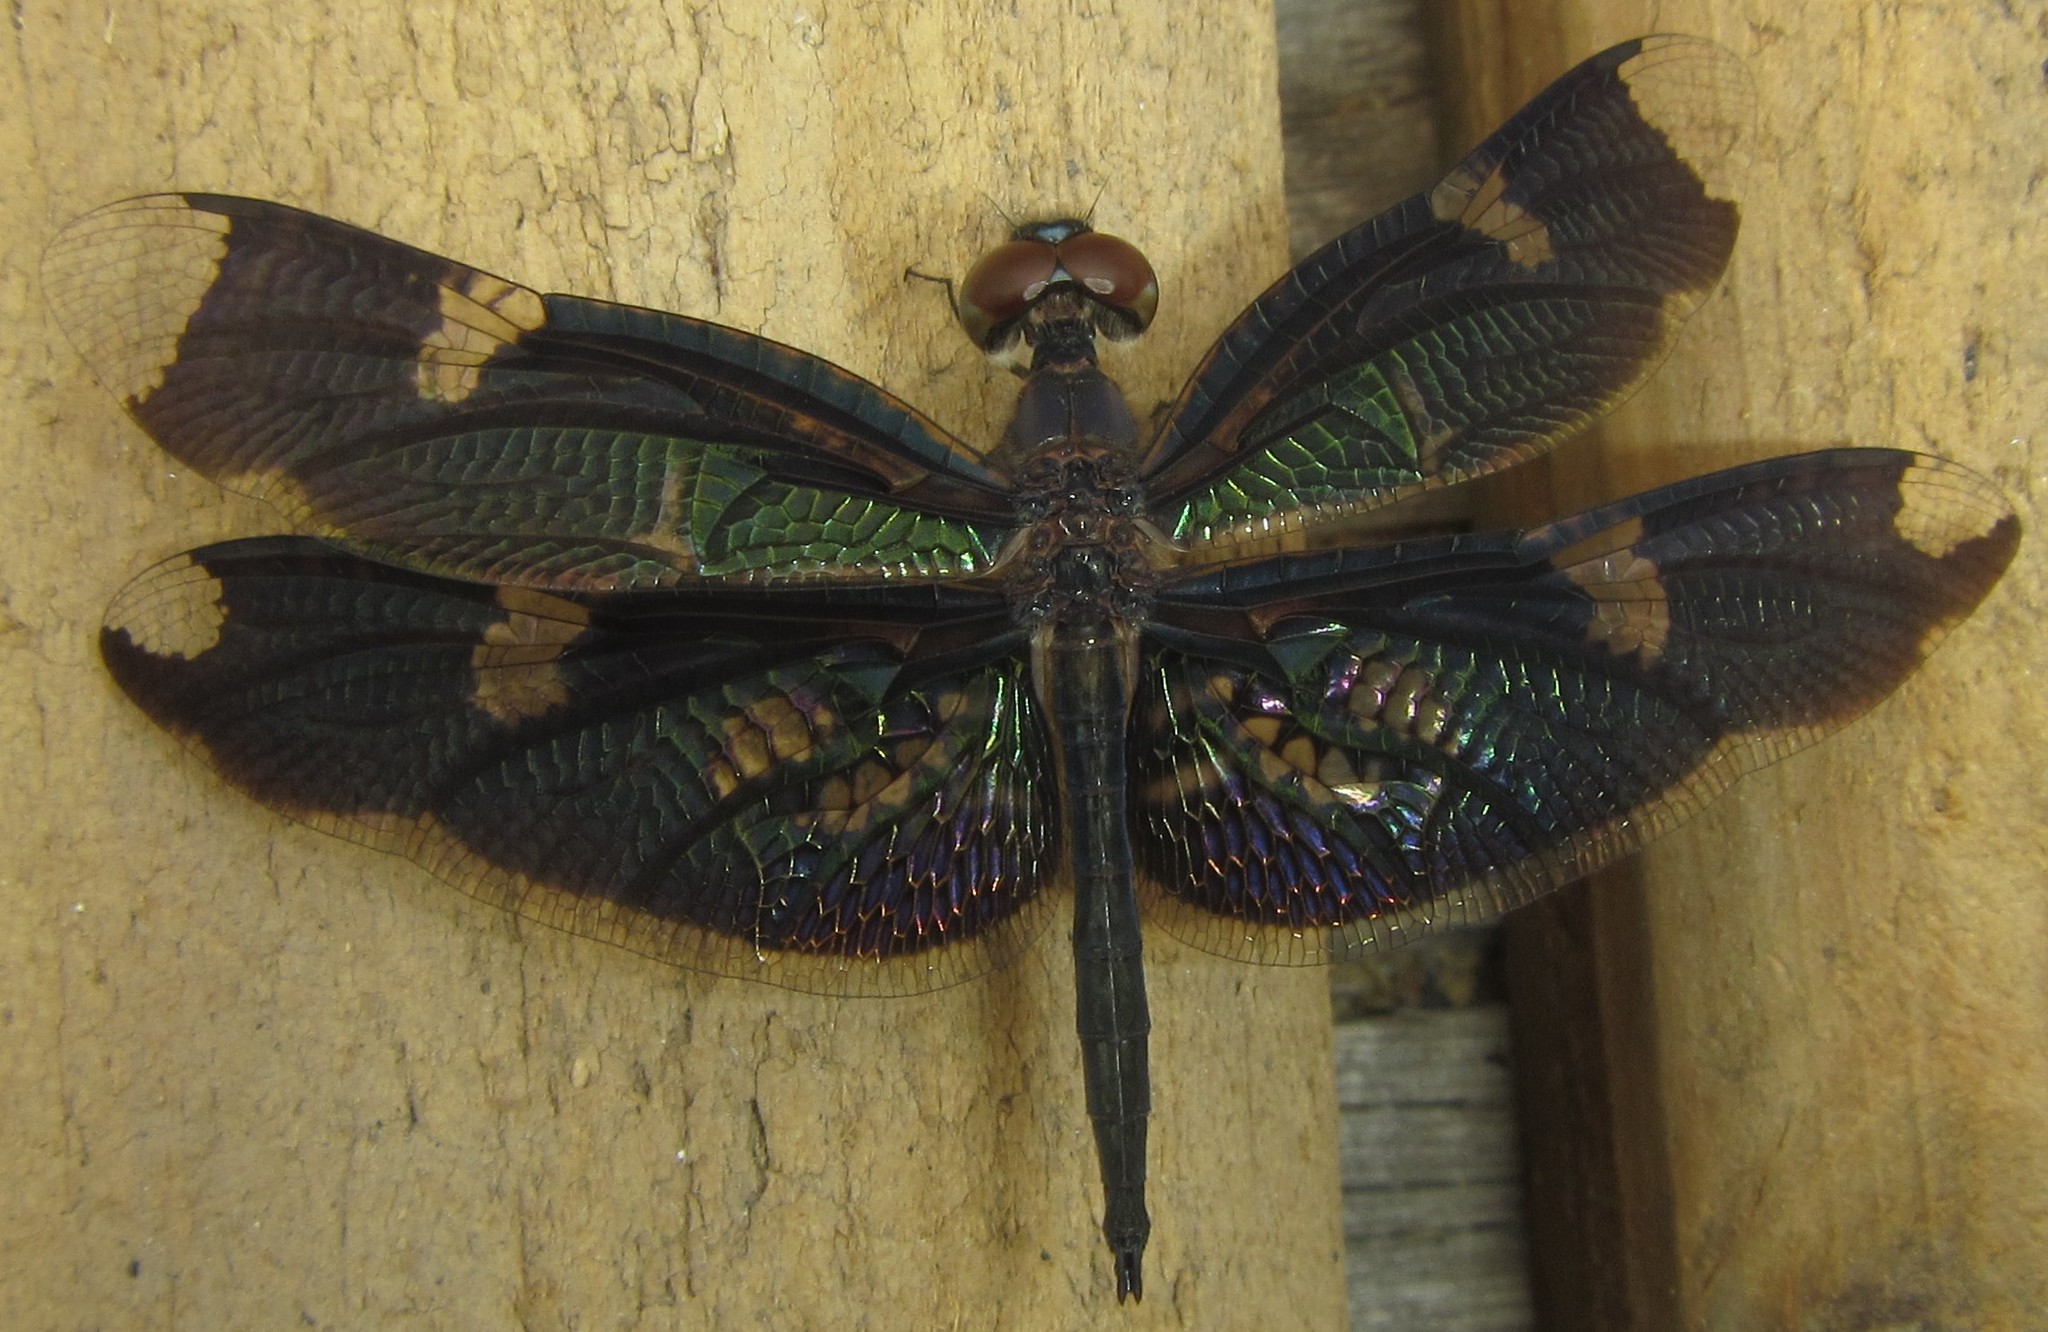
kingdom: Animalia
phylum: Arthropoda
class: Insecta
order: Odonata
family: Libellulidae
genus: Rhyothemis
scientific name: Rhyothemis fenestrina
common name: Skylight flutterer
